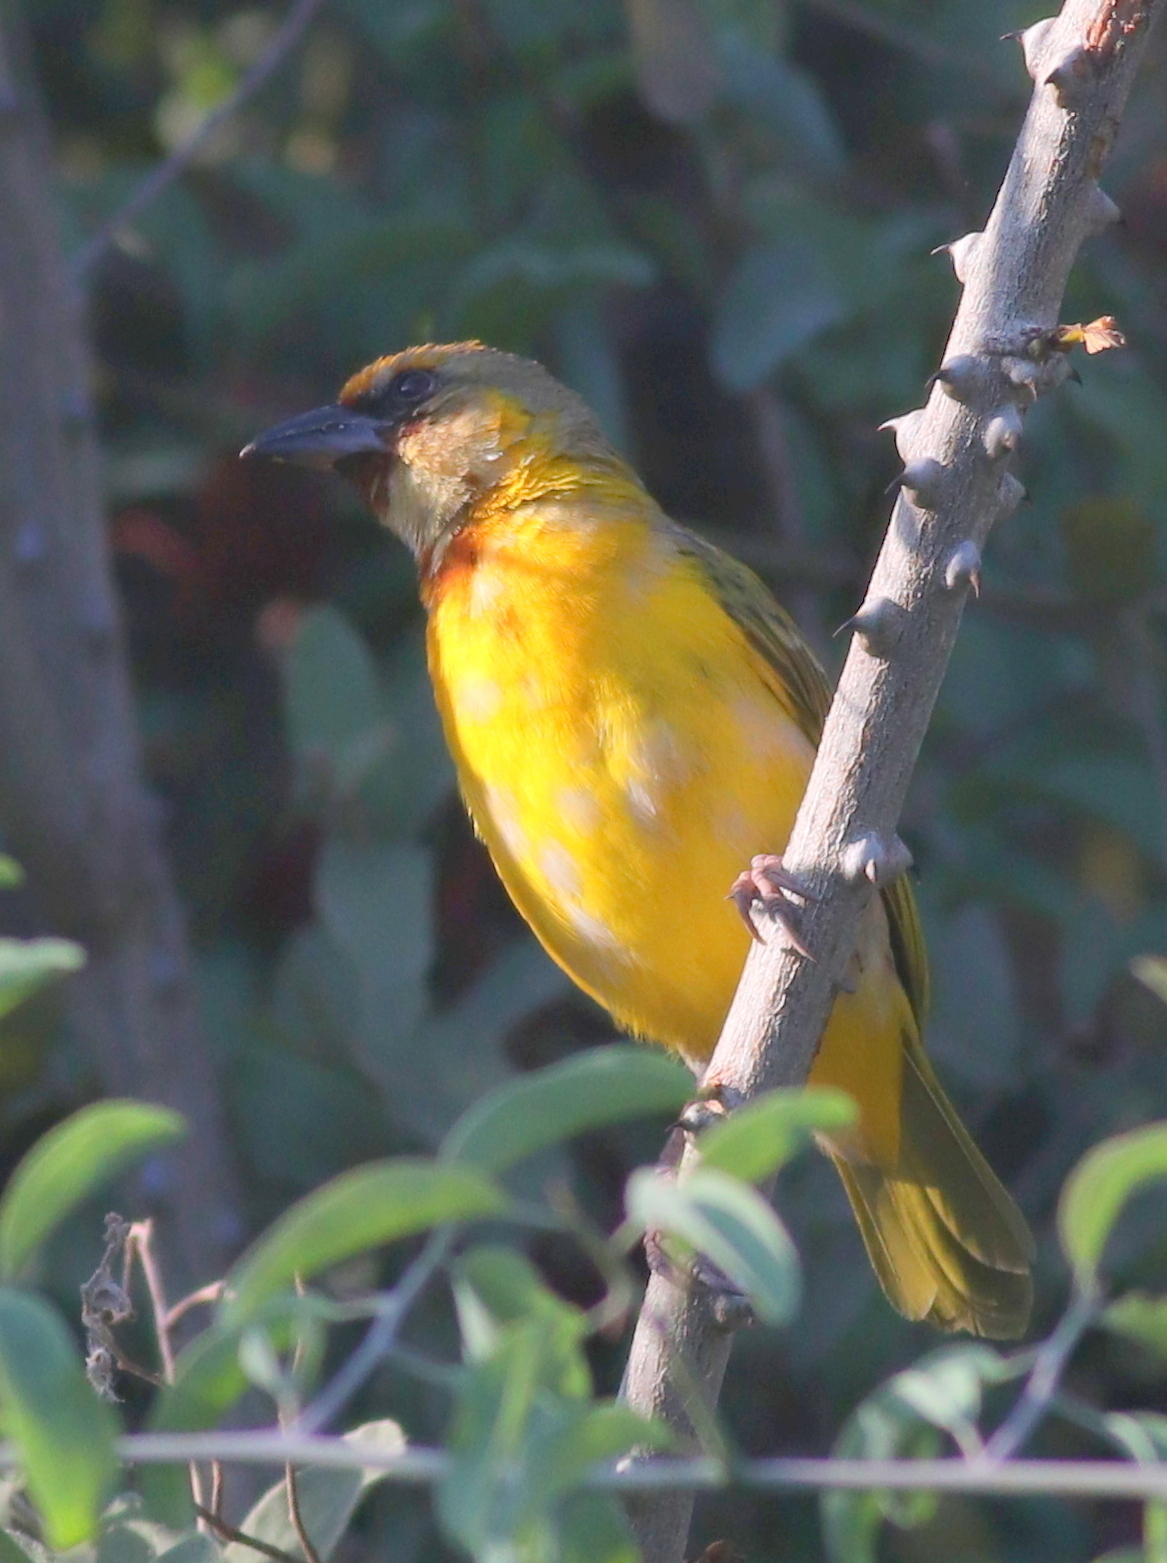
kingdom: Animalia
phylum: Chordata
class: Aves
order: Passeriformes
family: Ploceidae
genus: Ploceus
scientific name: Ploceus xanthopterus
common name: Southern brown-throated weaver
